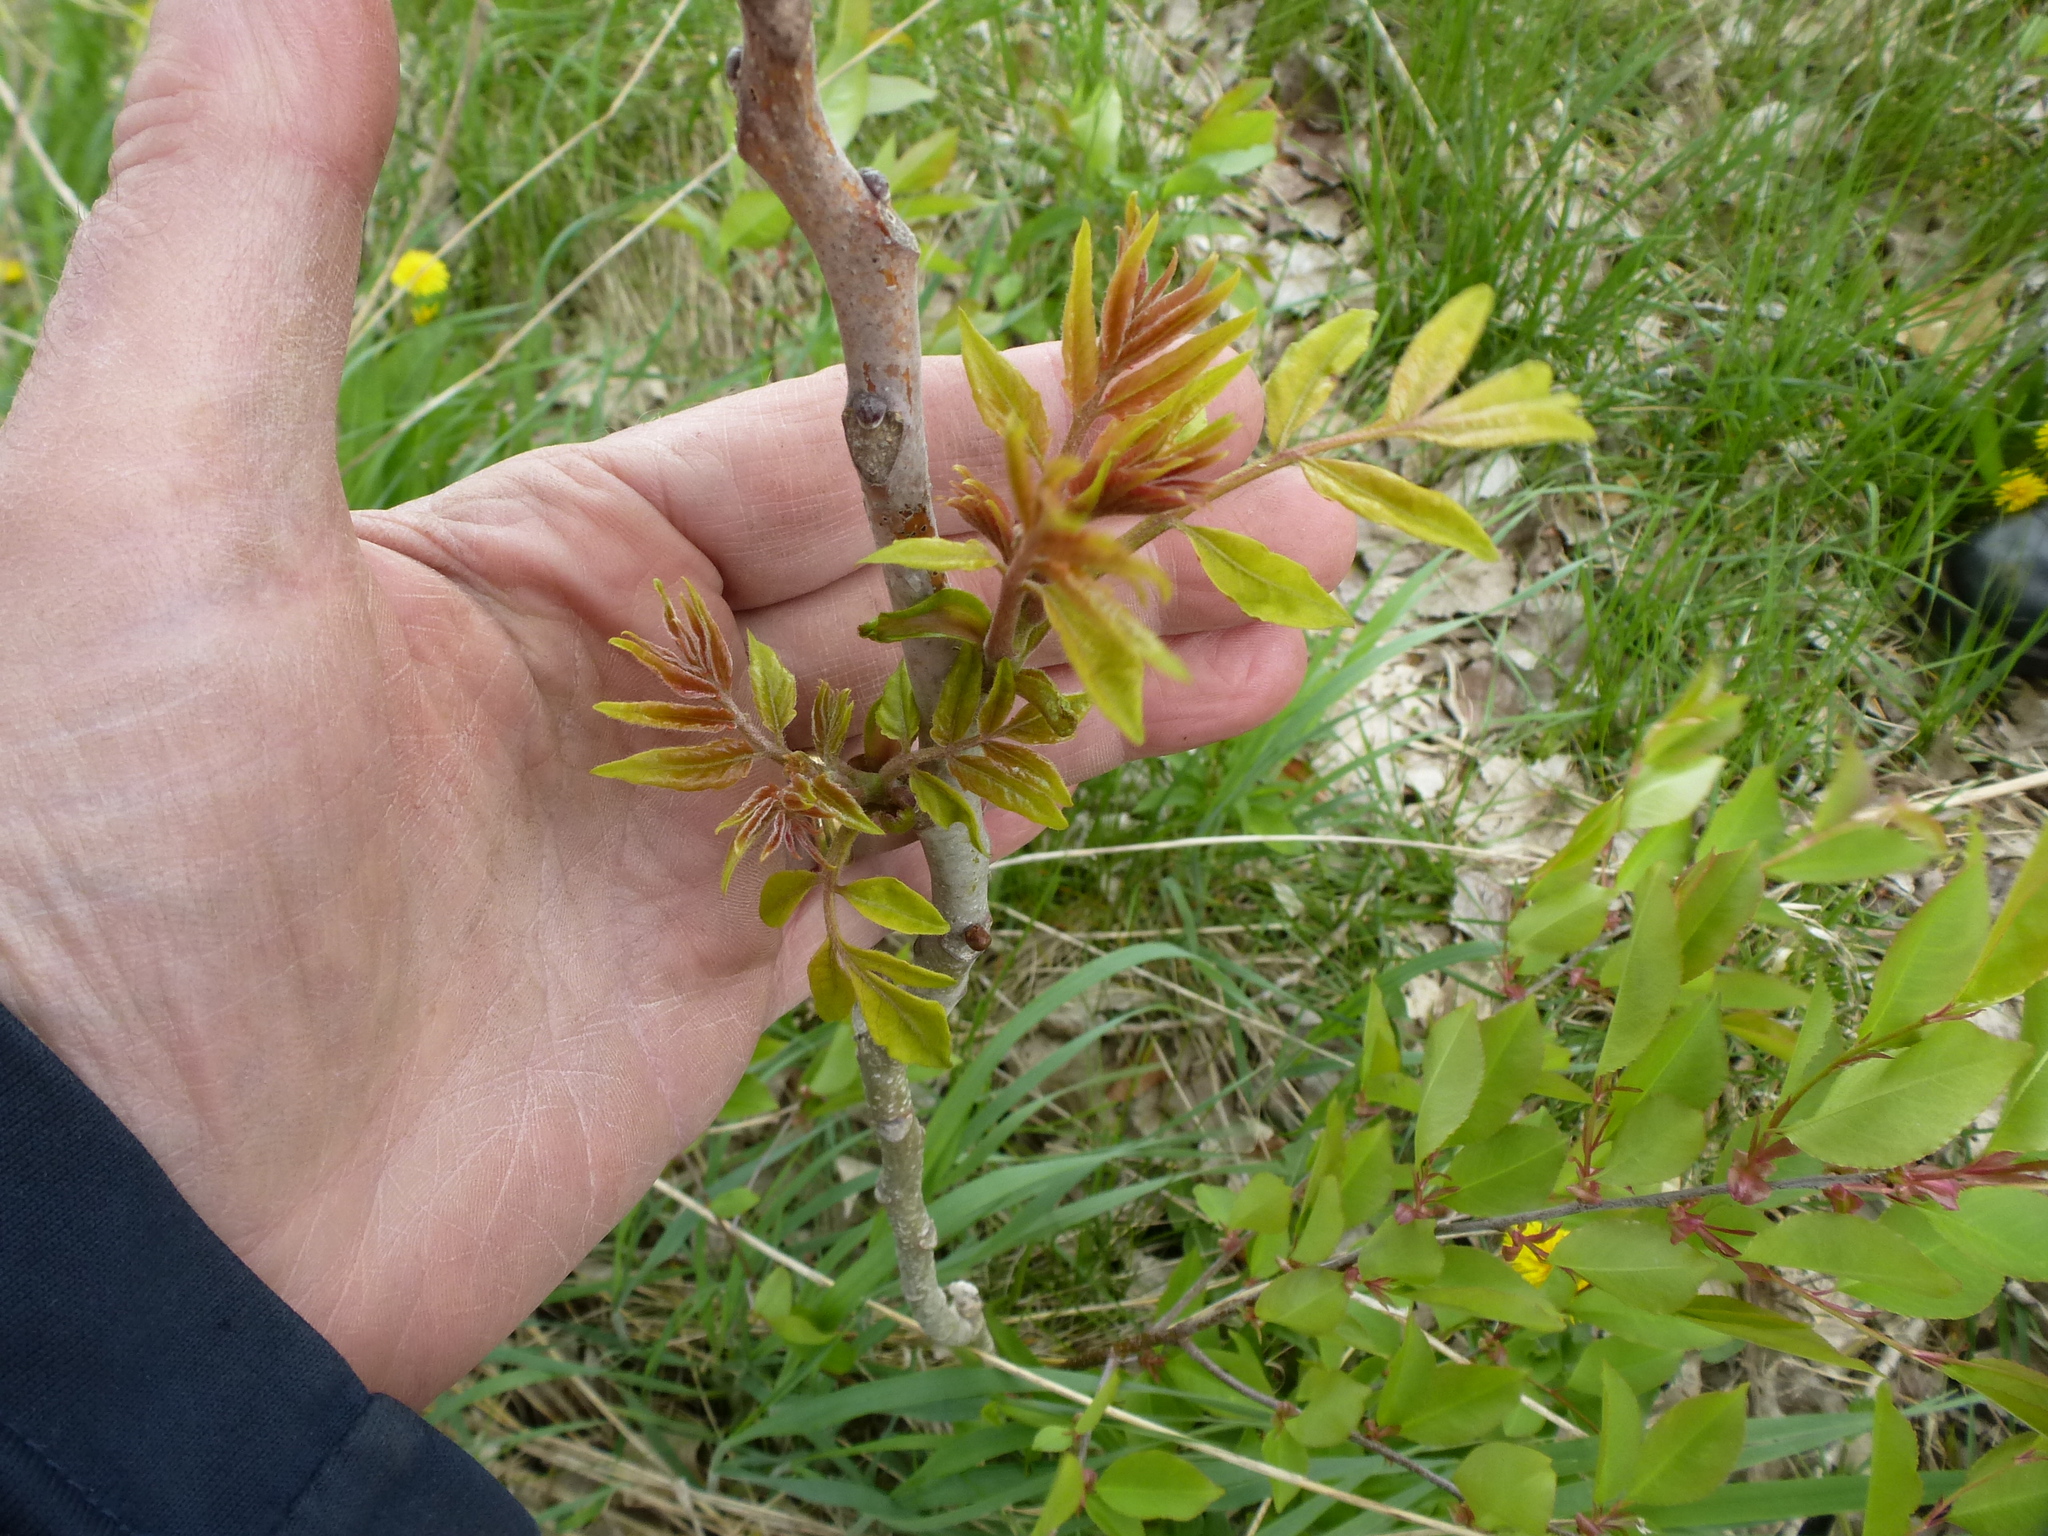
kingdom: Plantae
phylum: Tracheophyta
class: Magnoliopsida
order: Sapindales
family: Simaroubaceae
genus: Ailanthus
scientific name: Ailanthus altissima
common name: Tree-of-heaven
